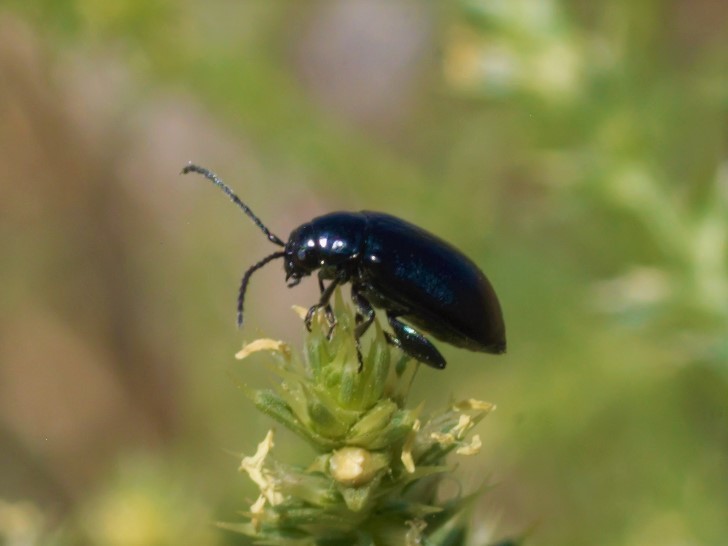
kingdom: Animalia
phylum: Arthropoda
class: Insecta
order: Coleoptera
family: Chrysomelidae
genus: Altica
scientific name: Altica
